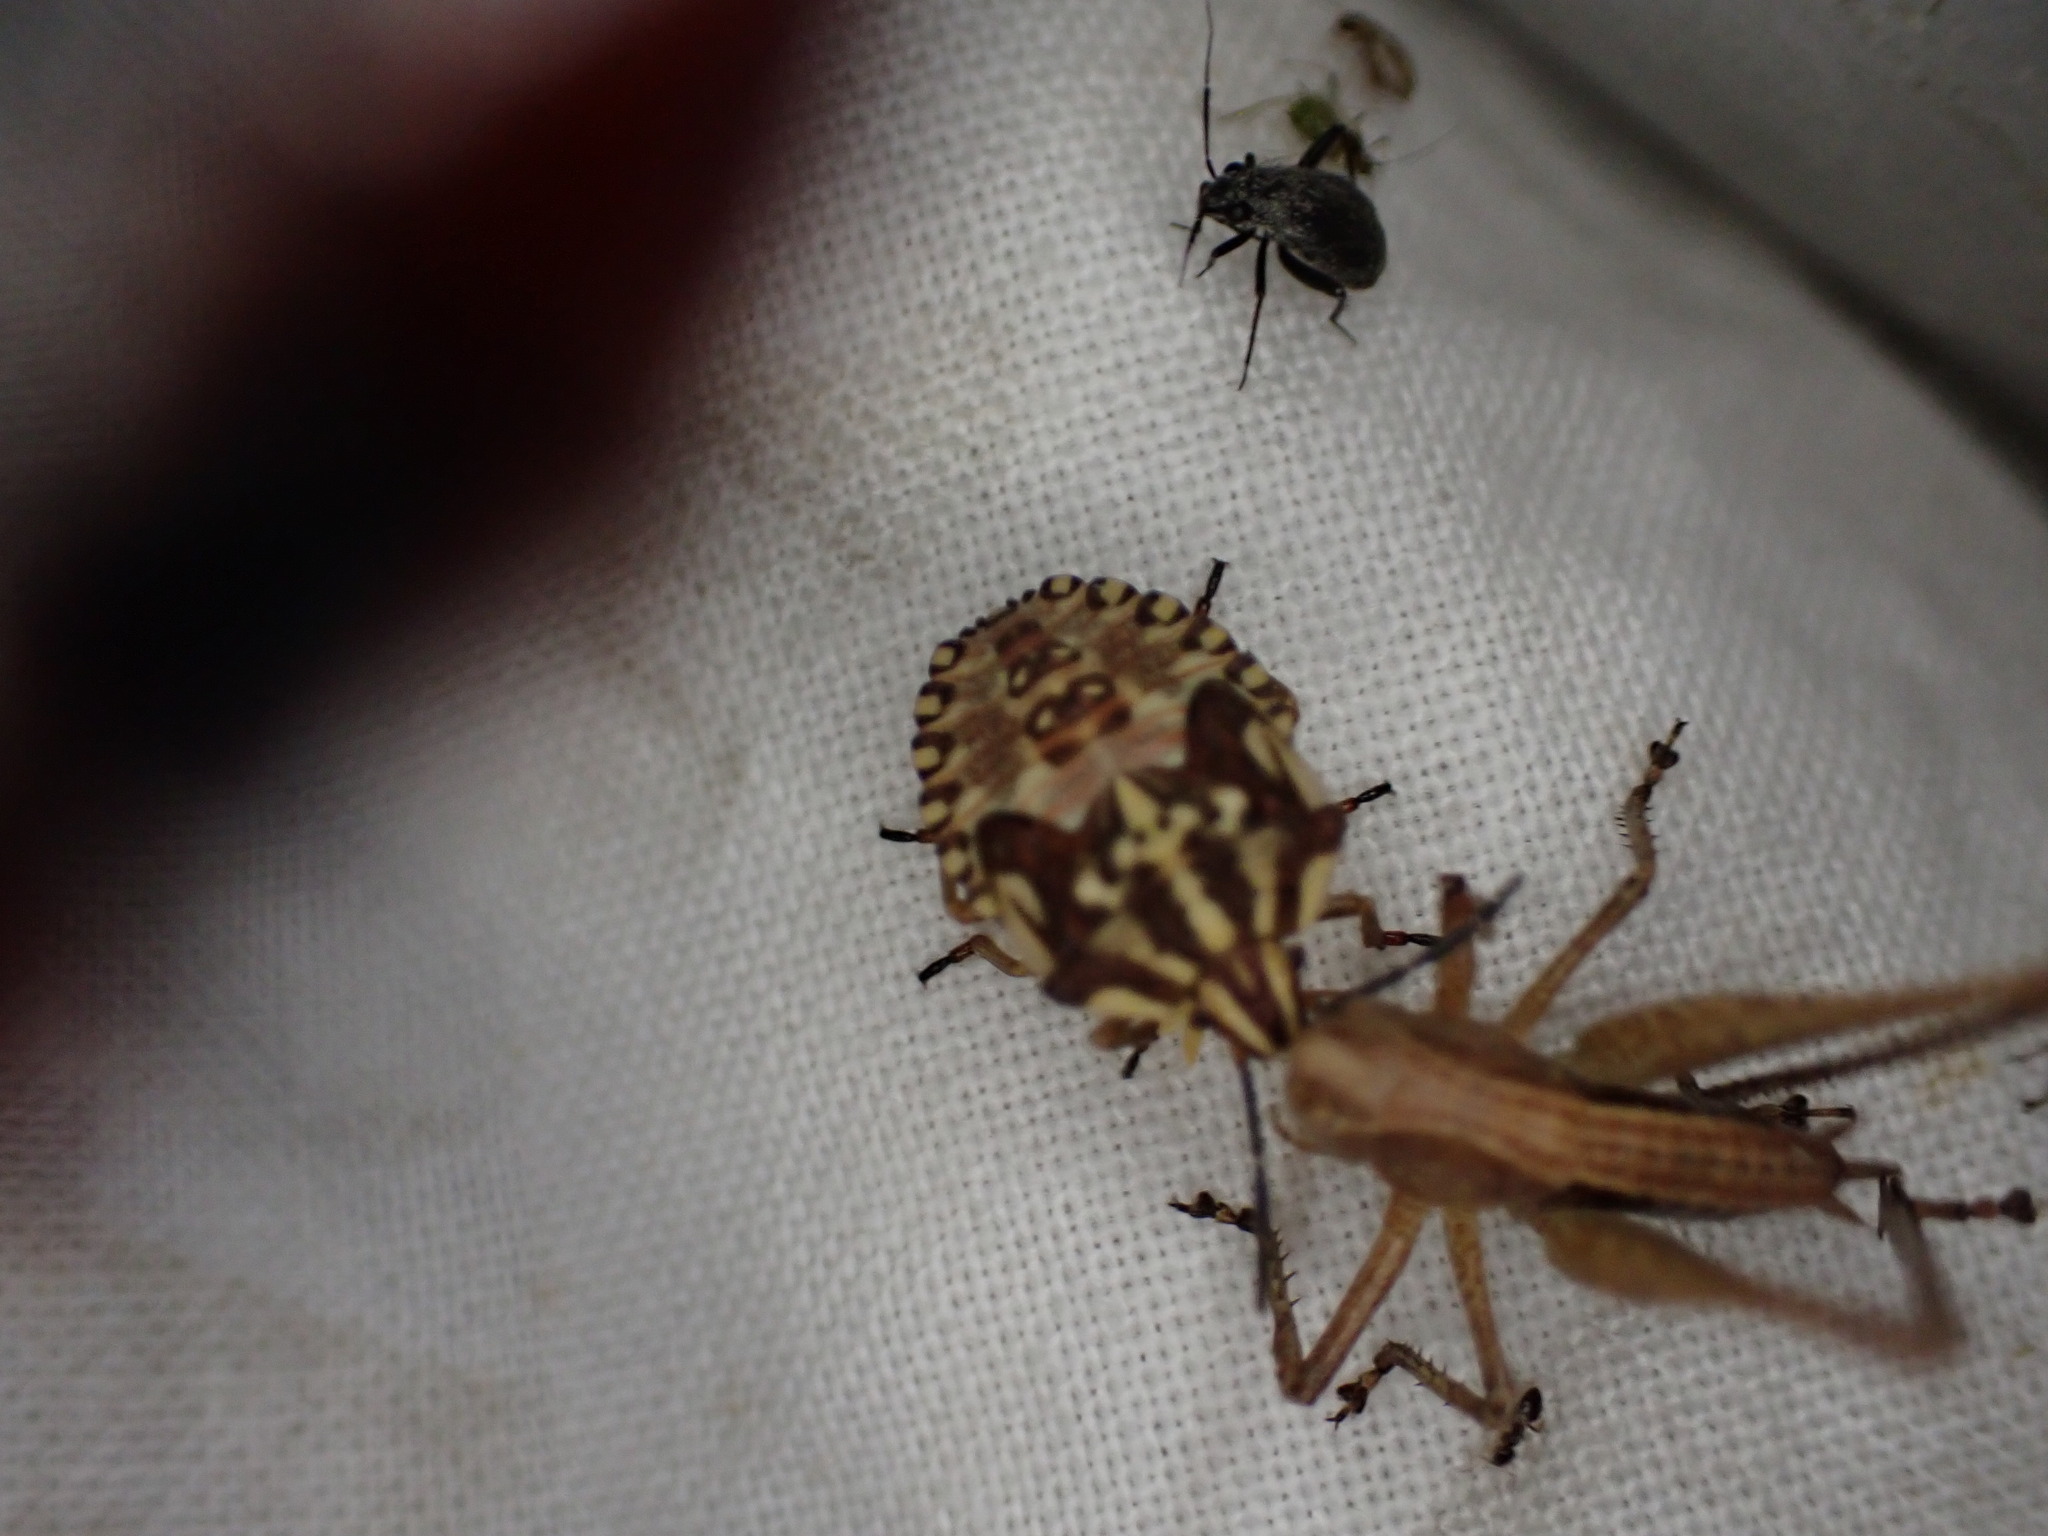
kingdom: Animalia
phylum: Arthropoda
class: Insecta
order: Hemiptera
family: Pentatomidae
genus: Carpocoris
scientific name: Carpocoris mediterraneus
